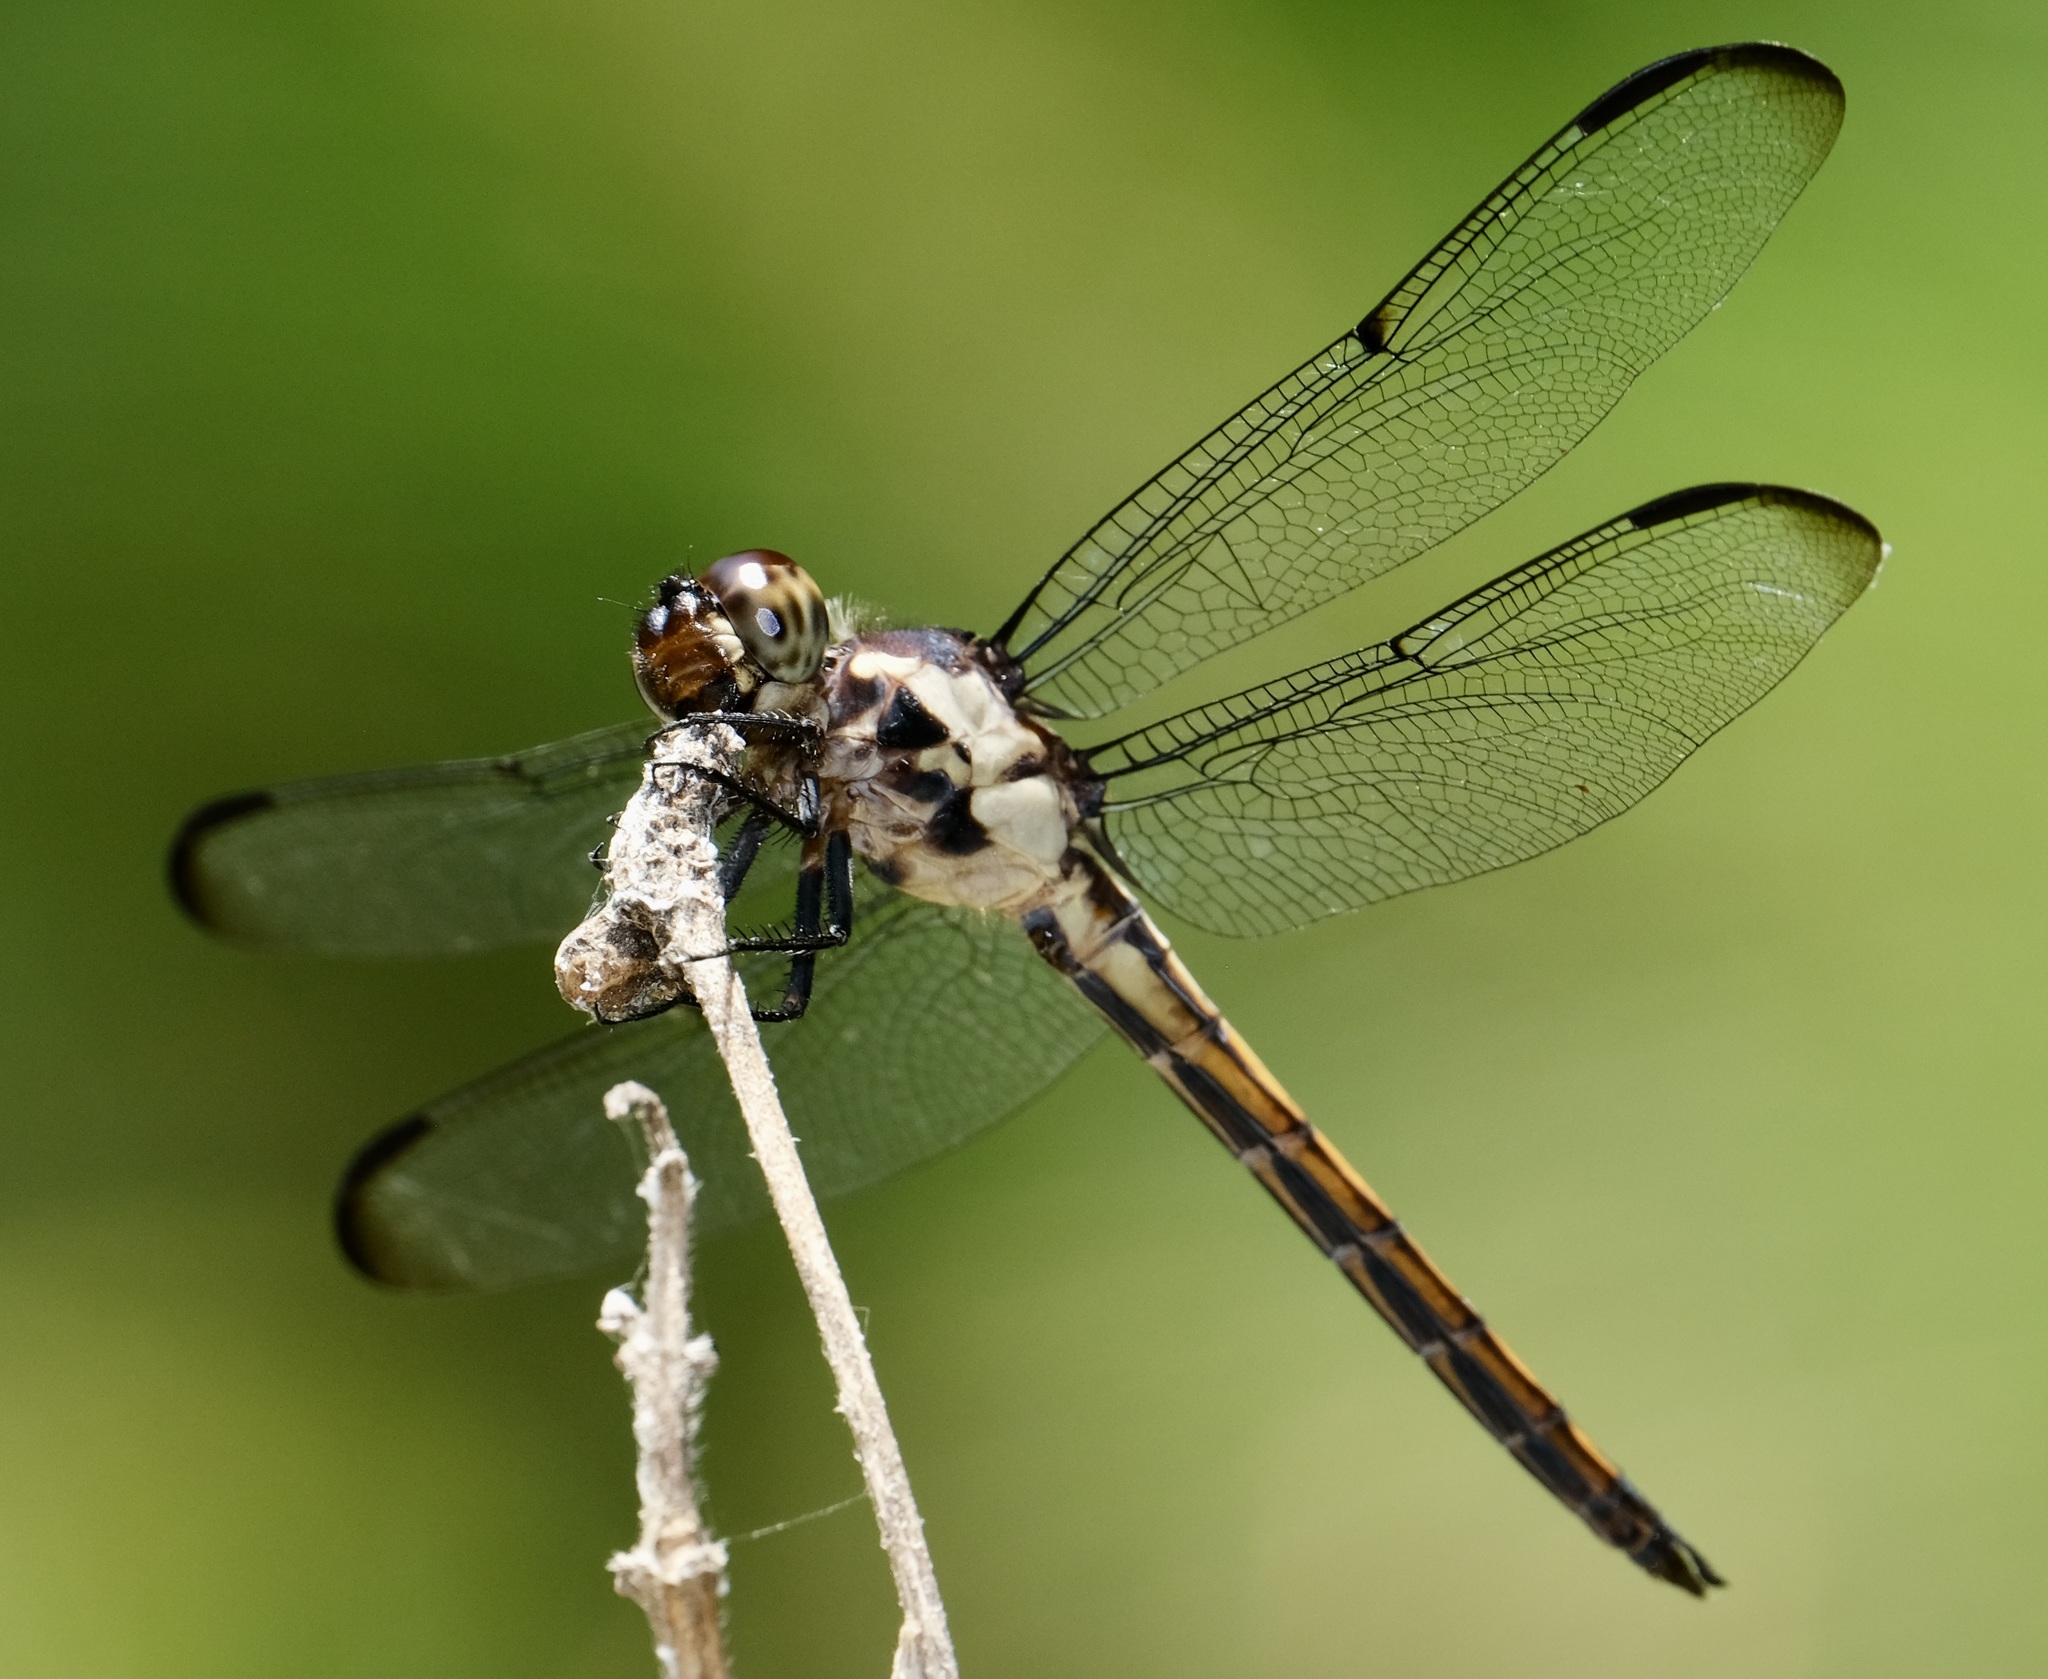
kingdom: Animalia
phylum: Arthropoda
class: Insecta
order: Odonata
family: Libellulidae
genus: Libellula
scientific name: Libellula incesta
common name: Slaty skimmer
